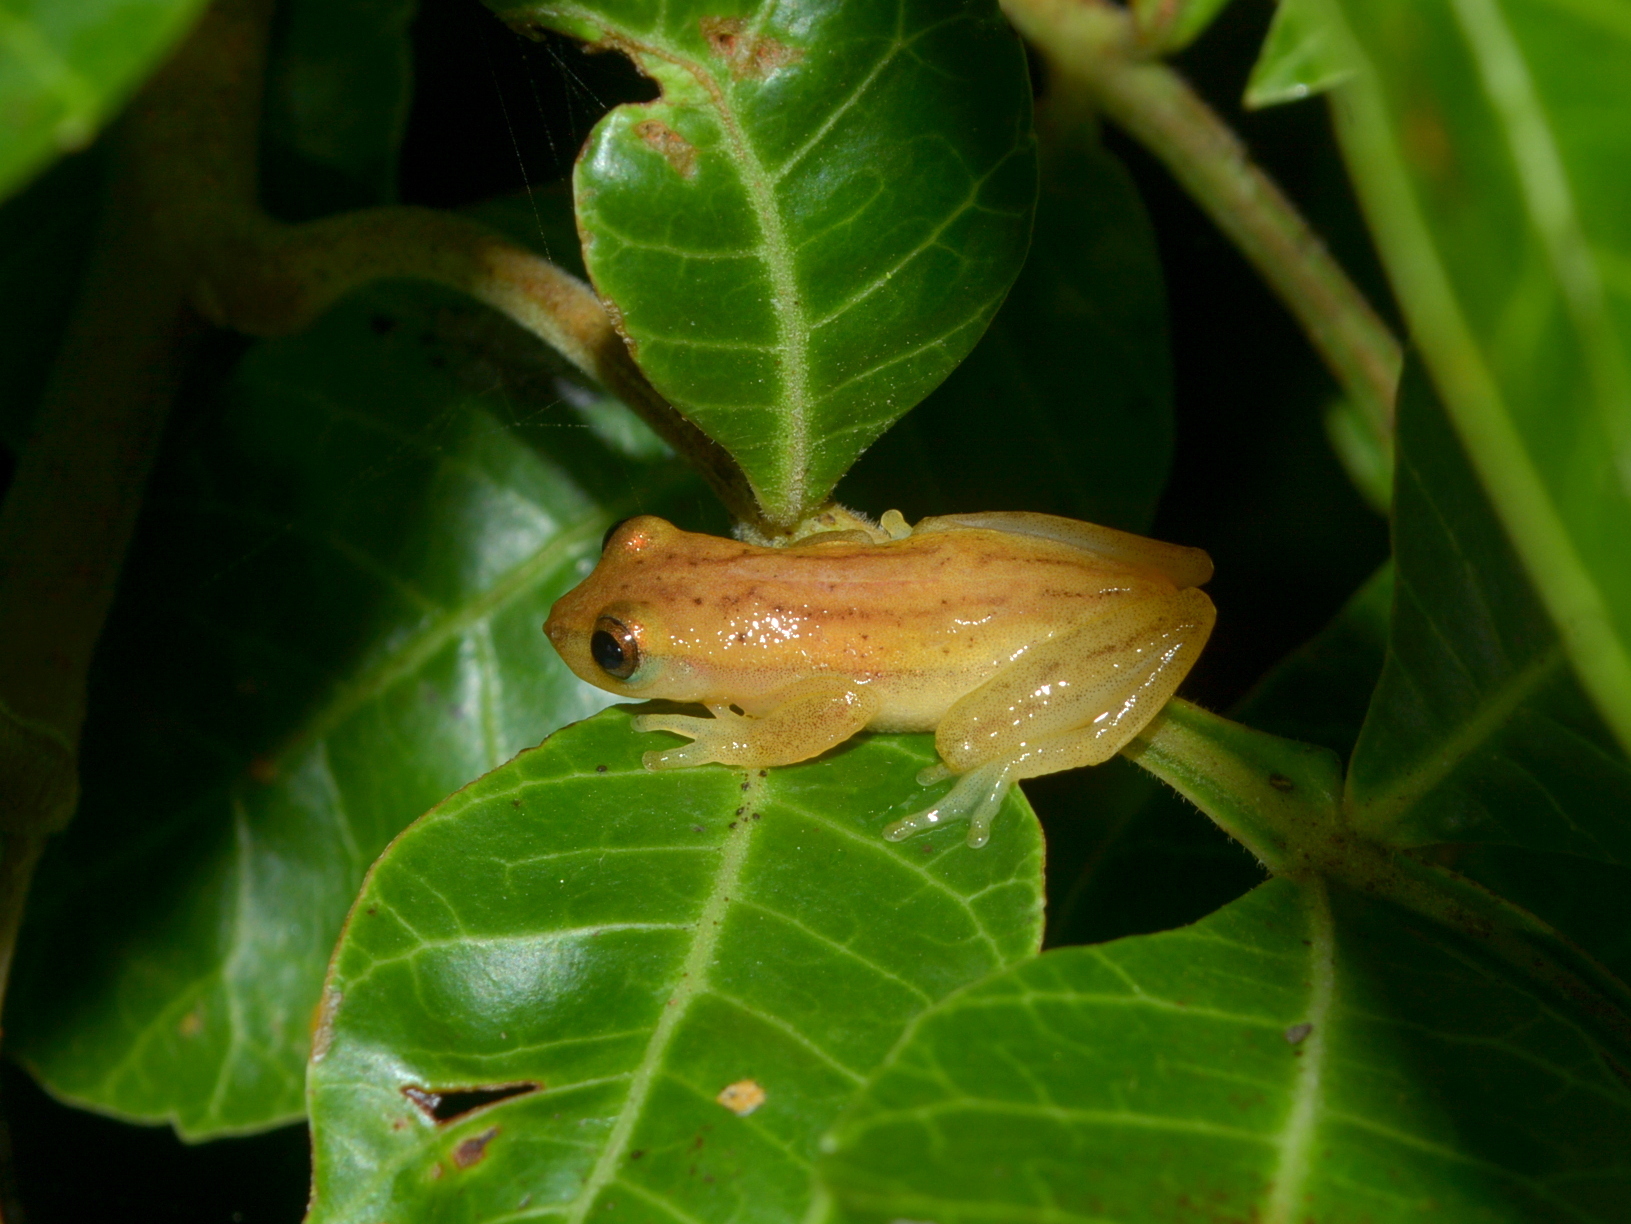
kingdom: Animalia
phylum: Chordata
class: Amphibia
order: Anura
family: Hylidae
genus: Dendropsophus
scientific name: Dendropsophus sanborni
